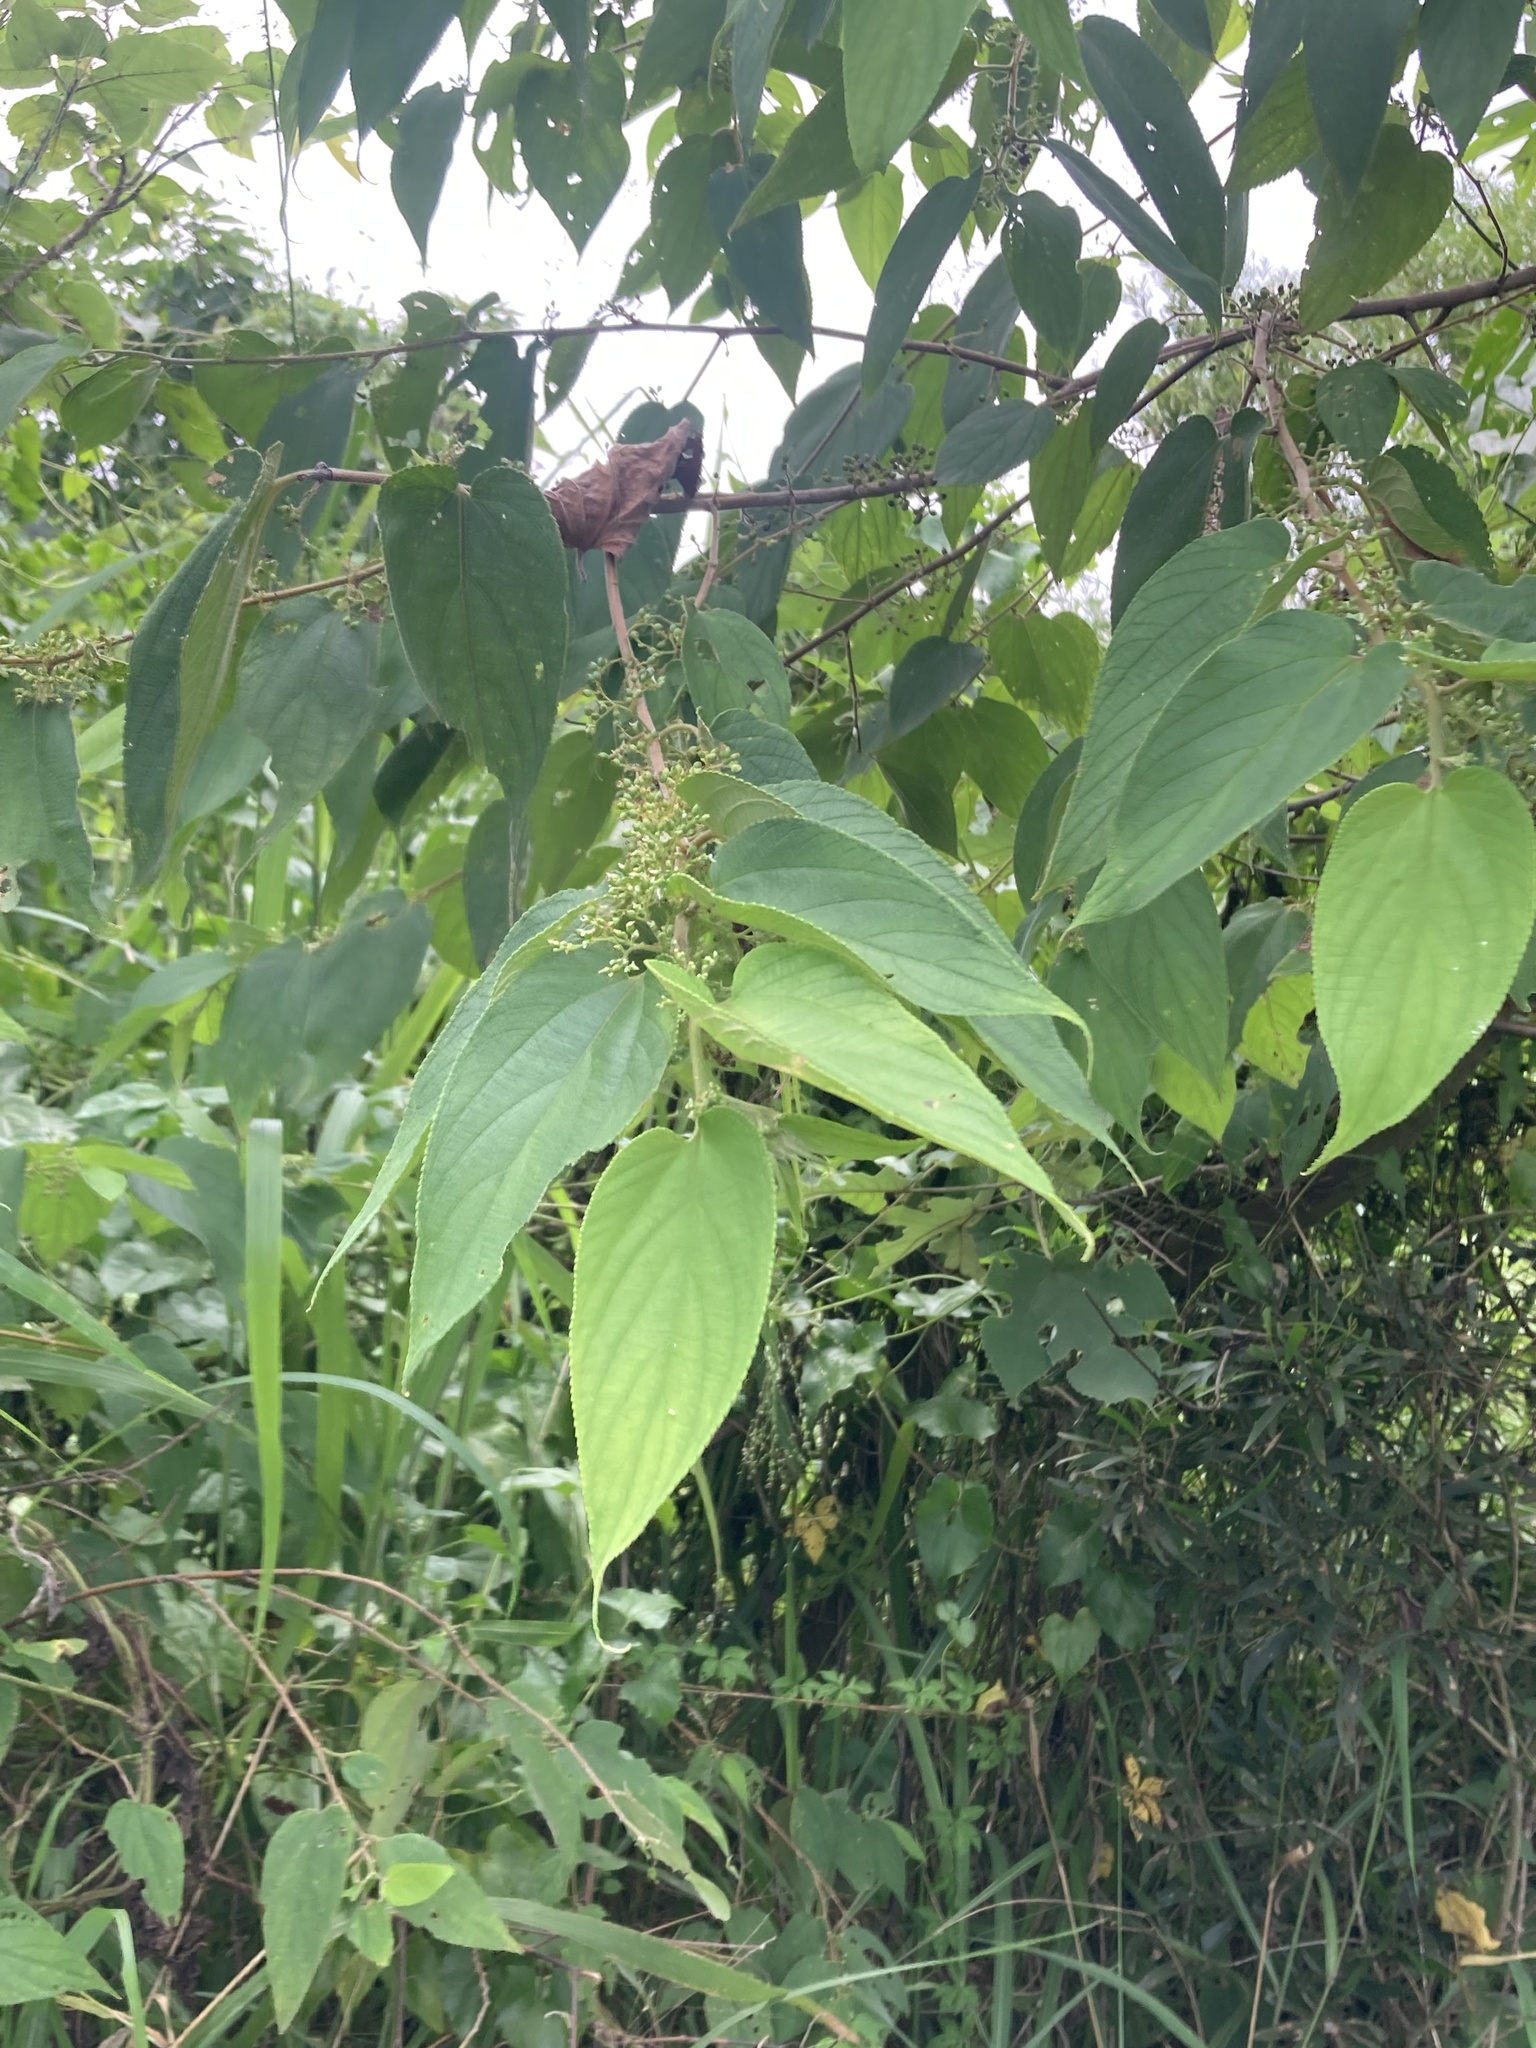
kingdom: Plantae
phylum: Tracheophyta
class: Magnoliopsida
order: Rosales
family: Cannabaceae
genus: Trema
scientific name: Trema orientale
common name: Indian charcoal tree
